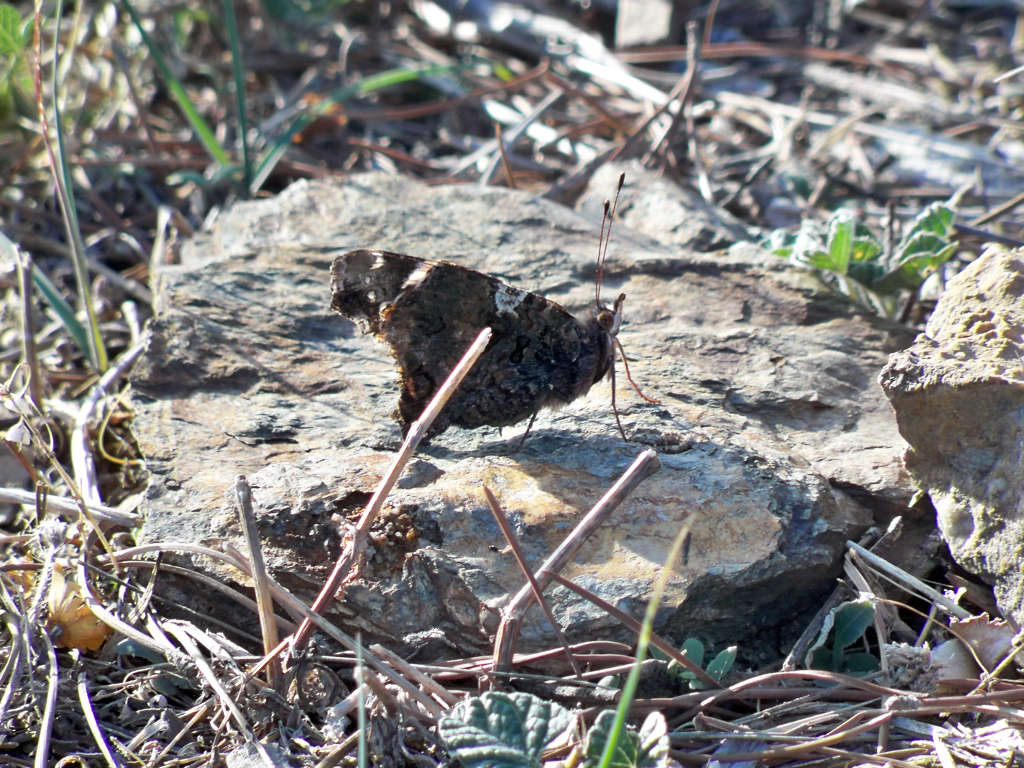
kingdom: Animalia
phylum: Arthropoda
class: Insecta
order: Lepidoptera
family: Nymphalidae
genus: Vanessa
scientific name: Vanessa atalanta
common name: Red admiral
